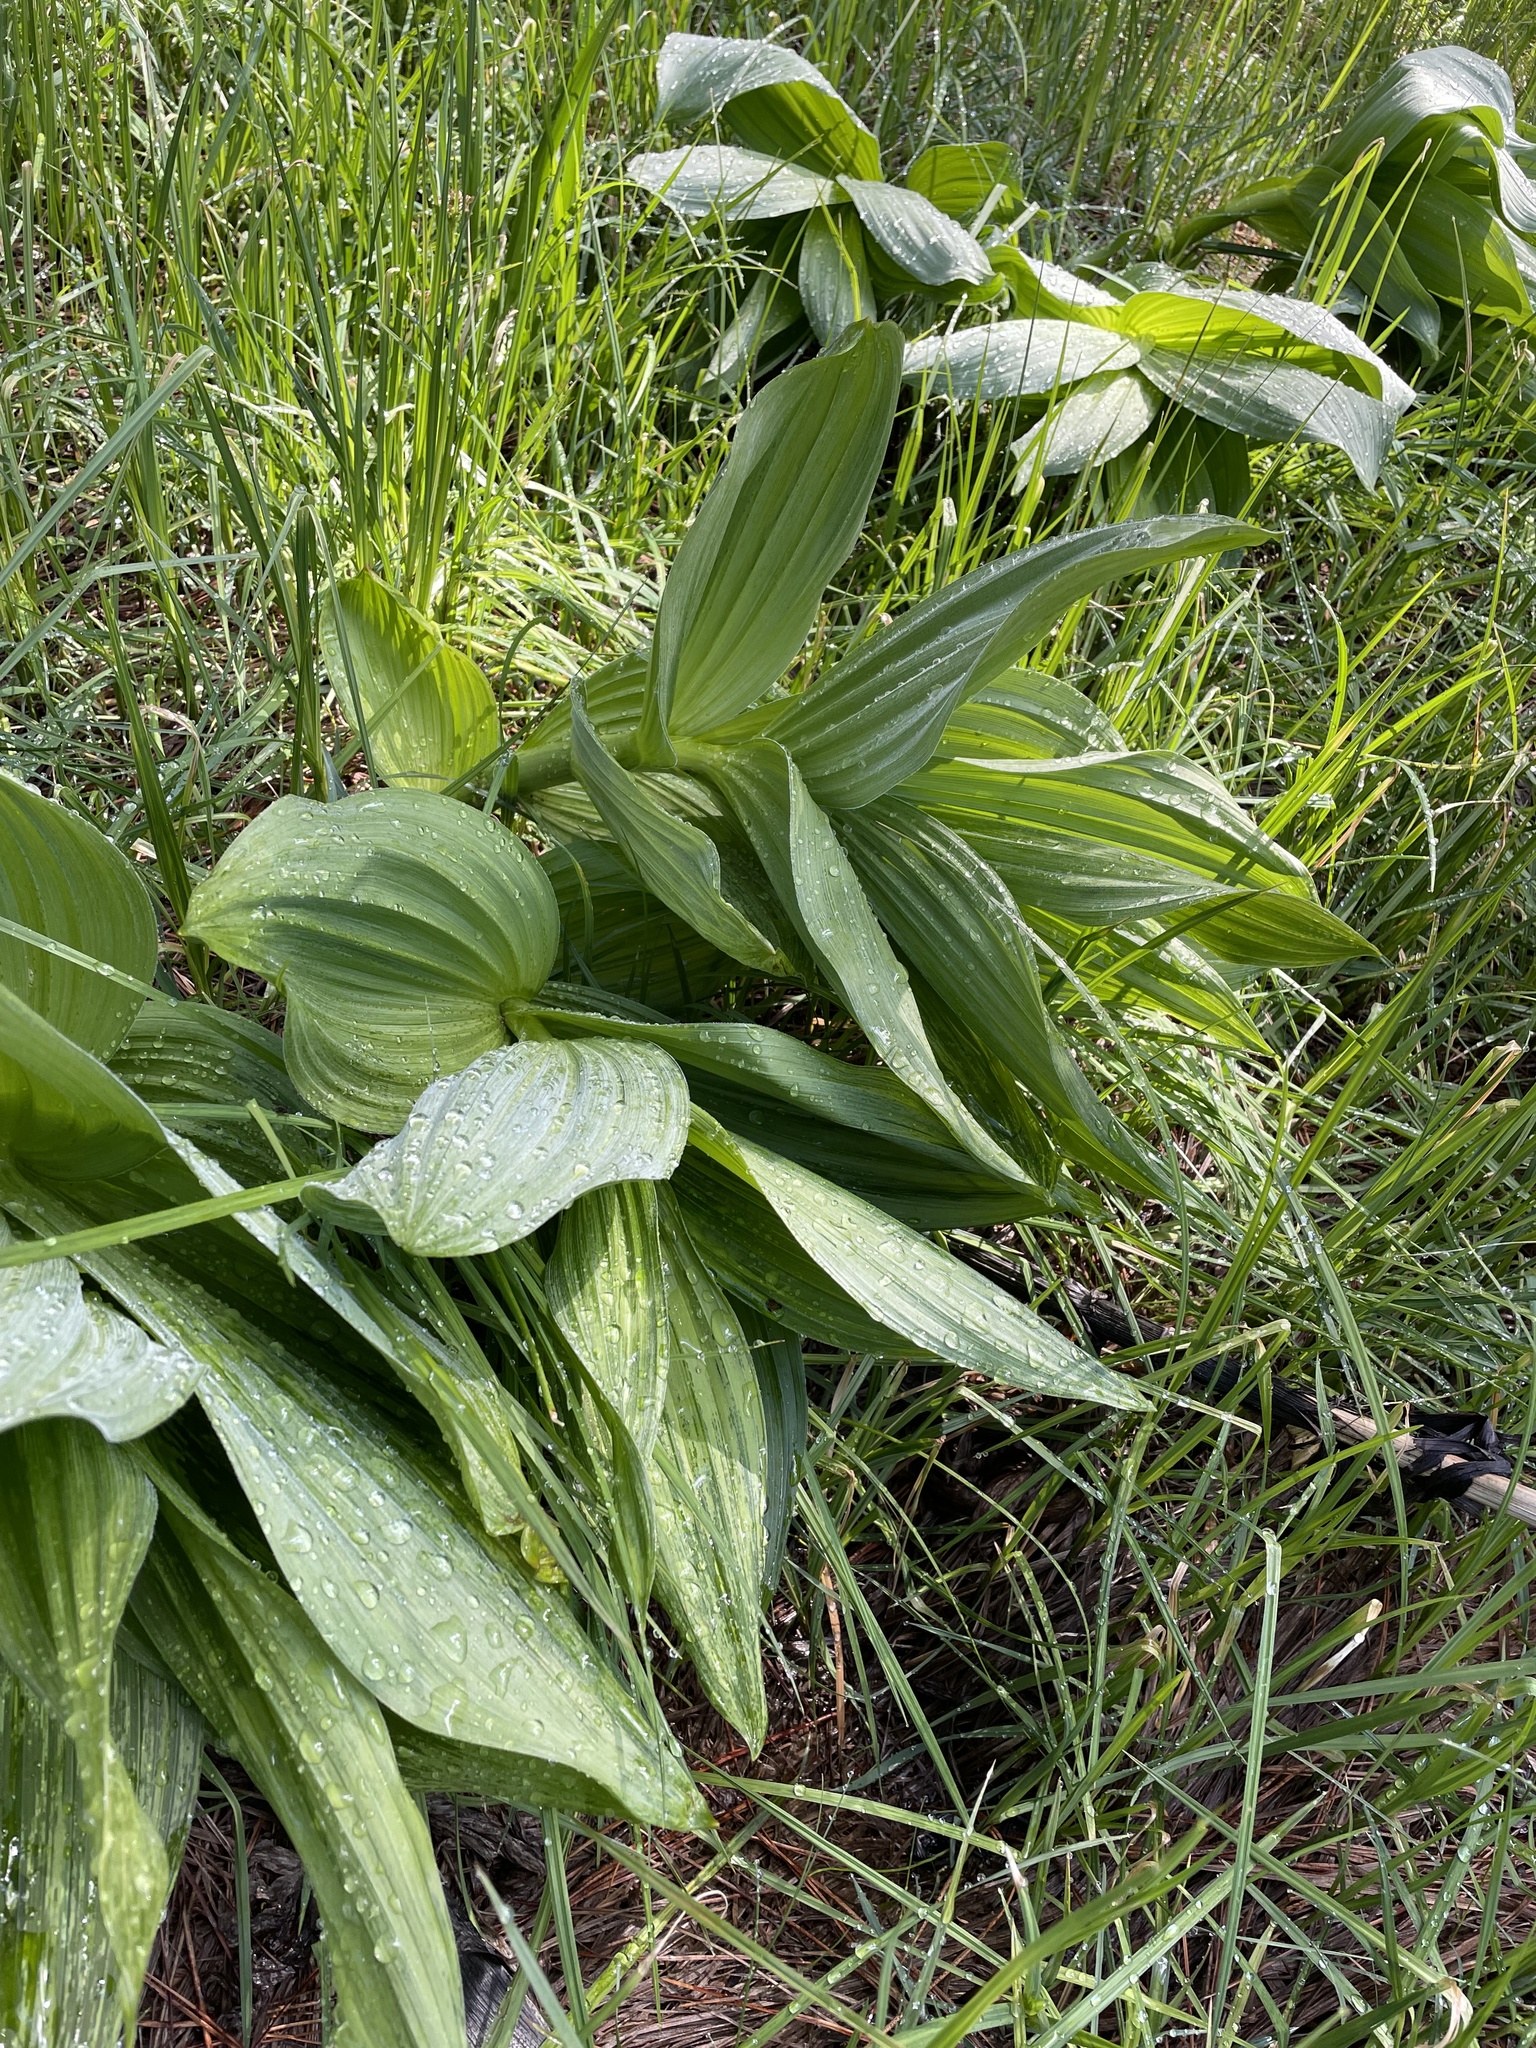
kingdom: Plantae
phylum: Tracheophyta
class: Liliopsida
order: Liliales
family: Melanthiaceae
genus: Veratrum
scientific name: Veratrum californicum
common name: California veratrum
